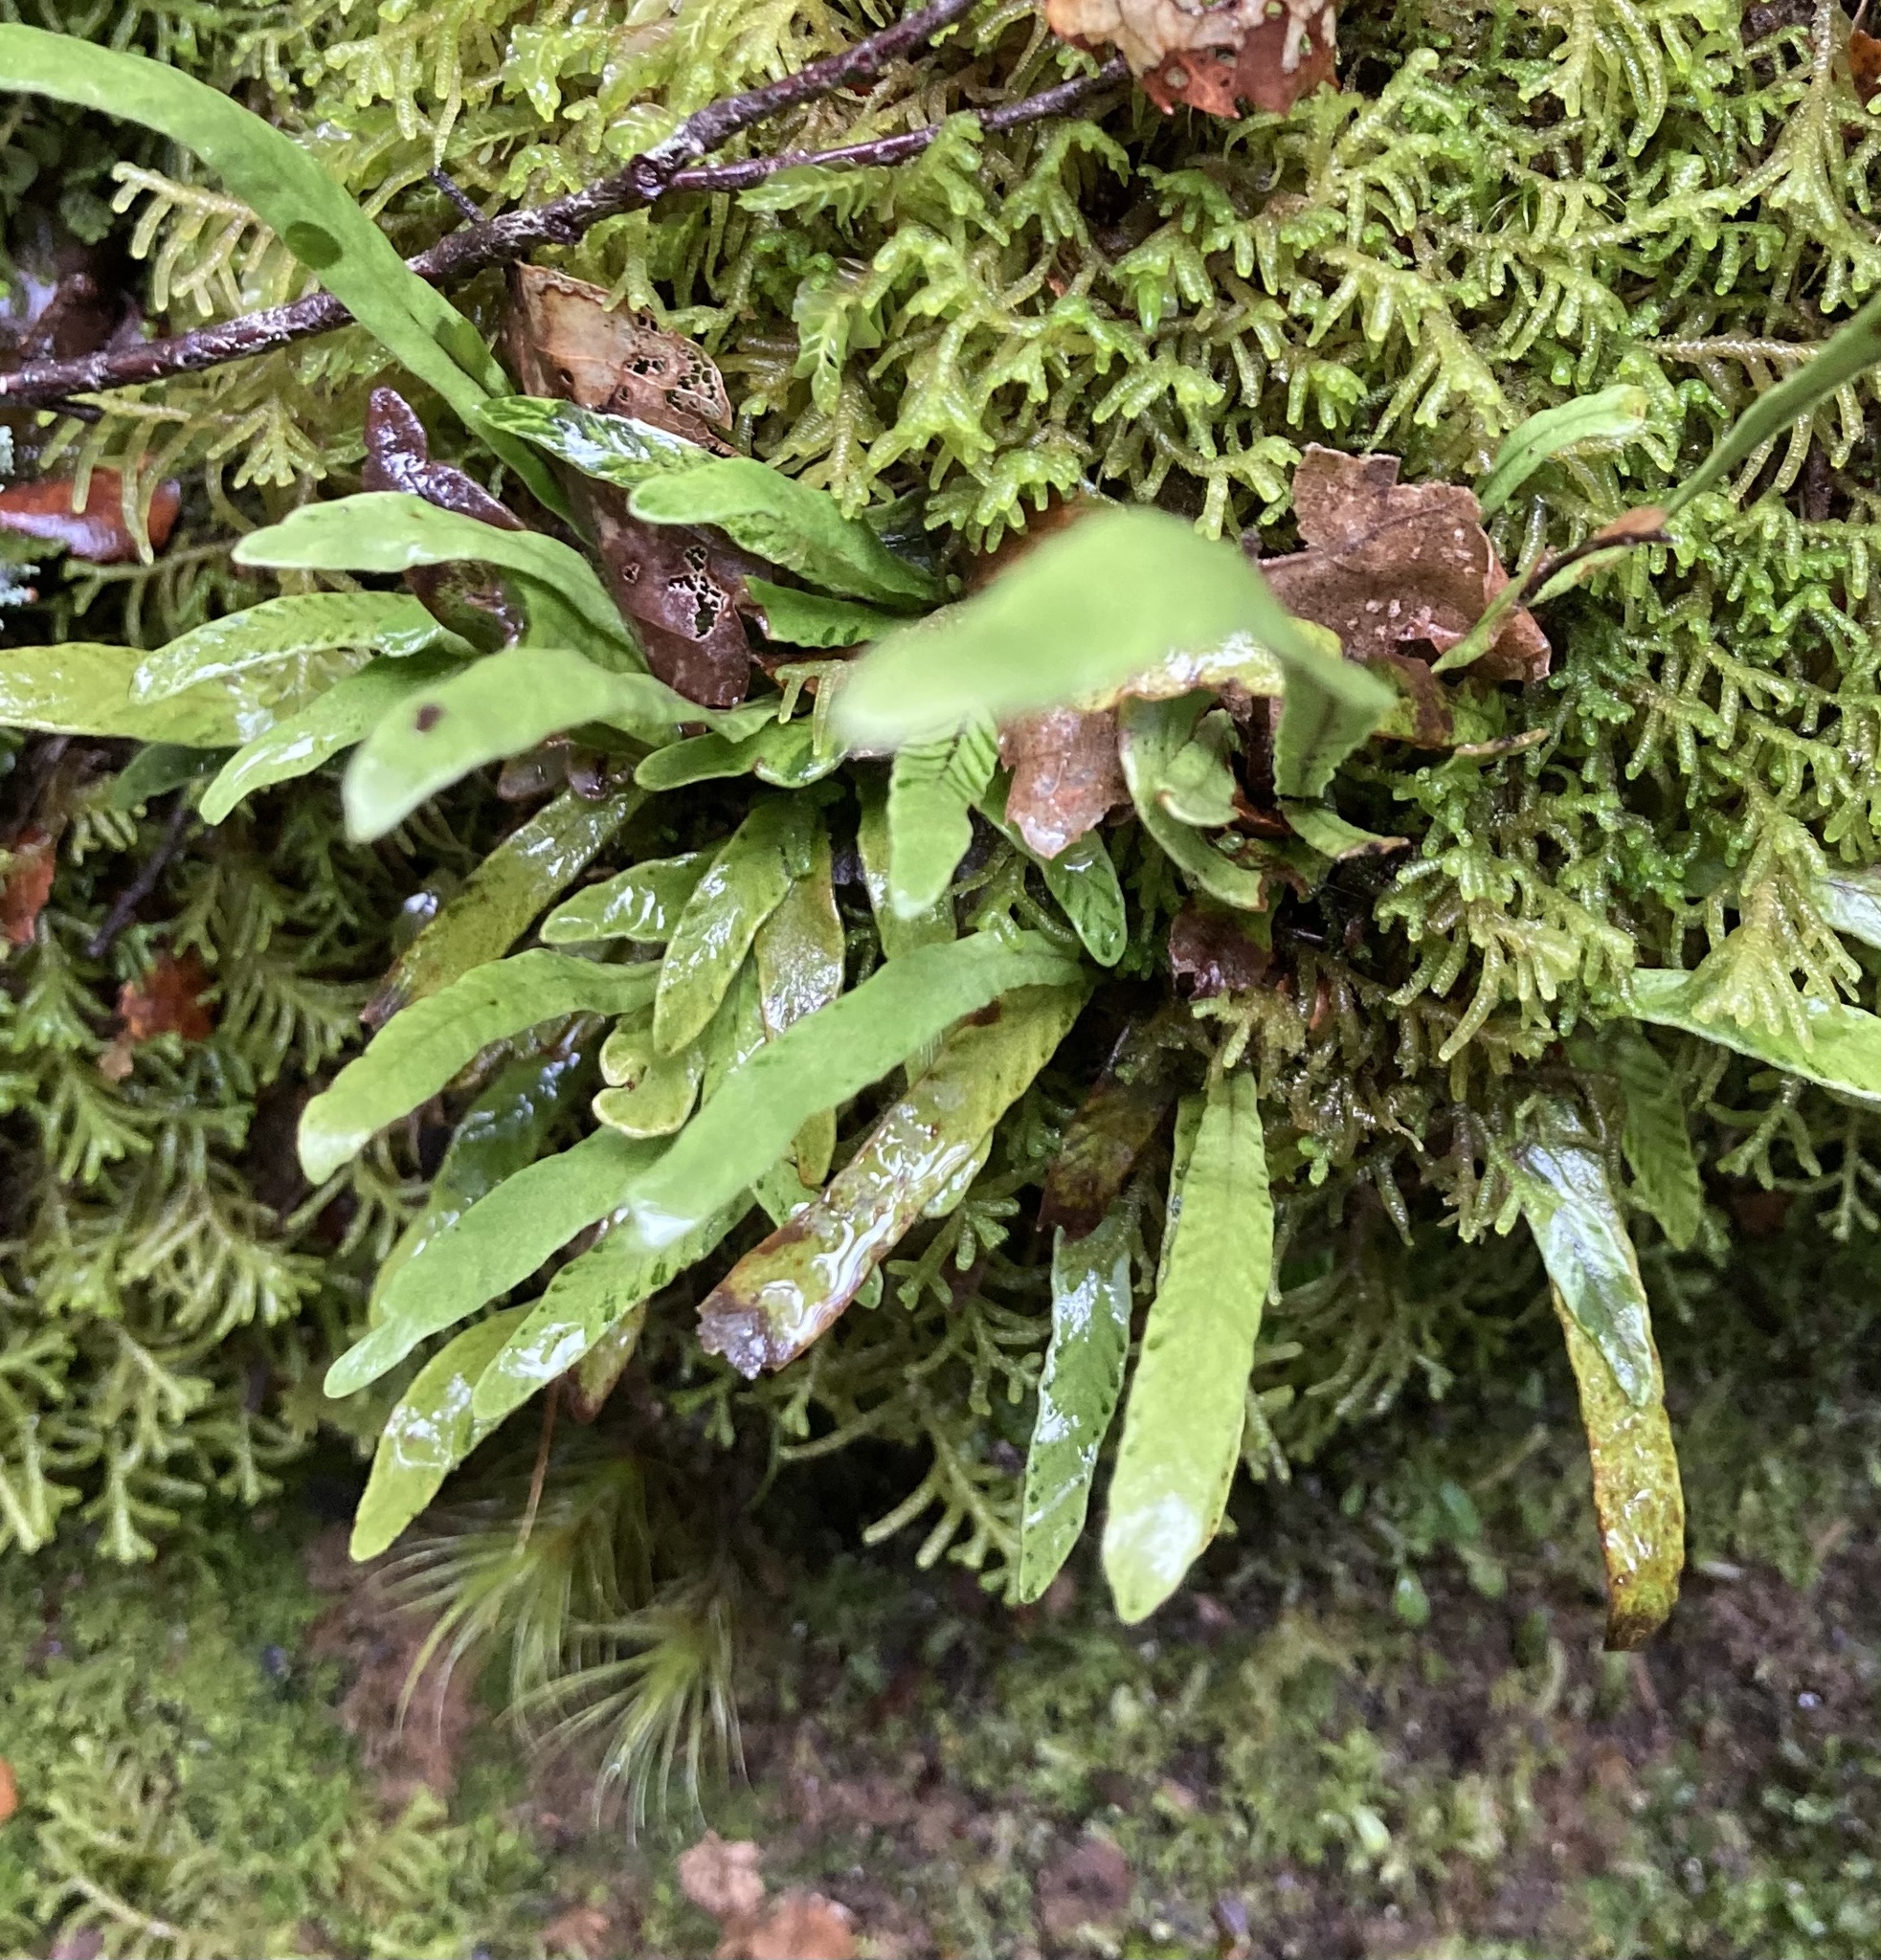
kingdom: Plantae
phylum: Tracheophyta
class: Polypodiopsida
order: Polypodiales
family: Polypodiaceae
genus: Notogrammitis
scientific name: Notogrammitis billardierei
